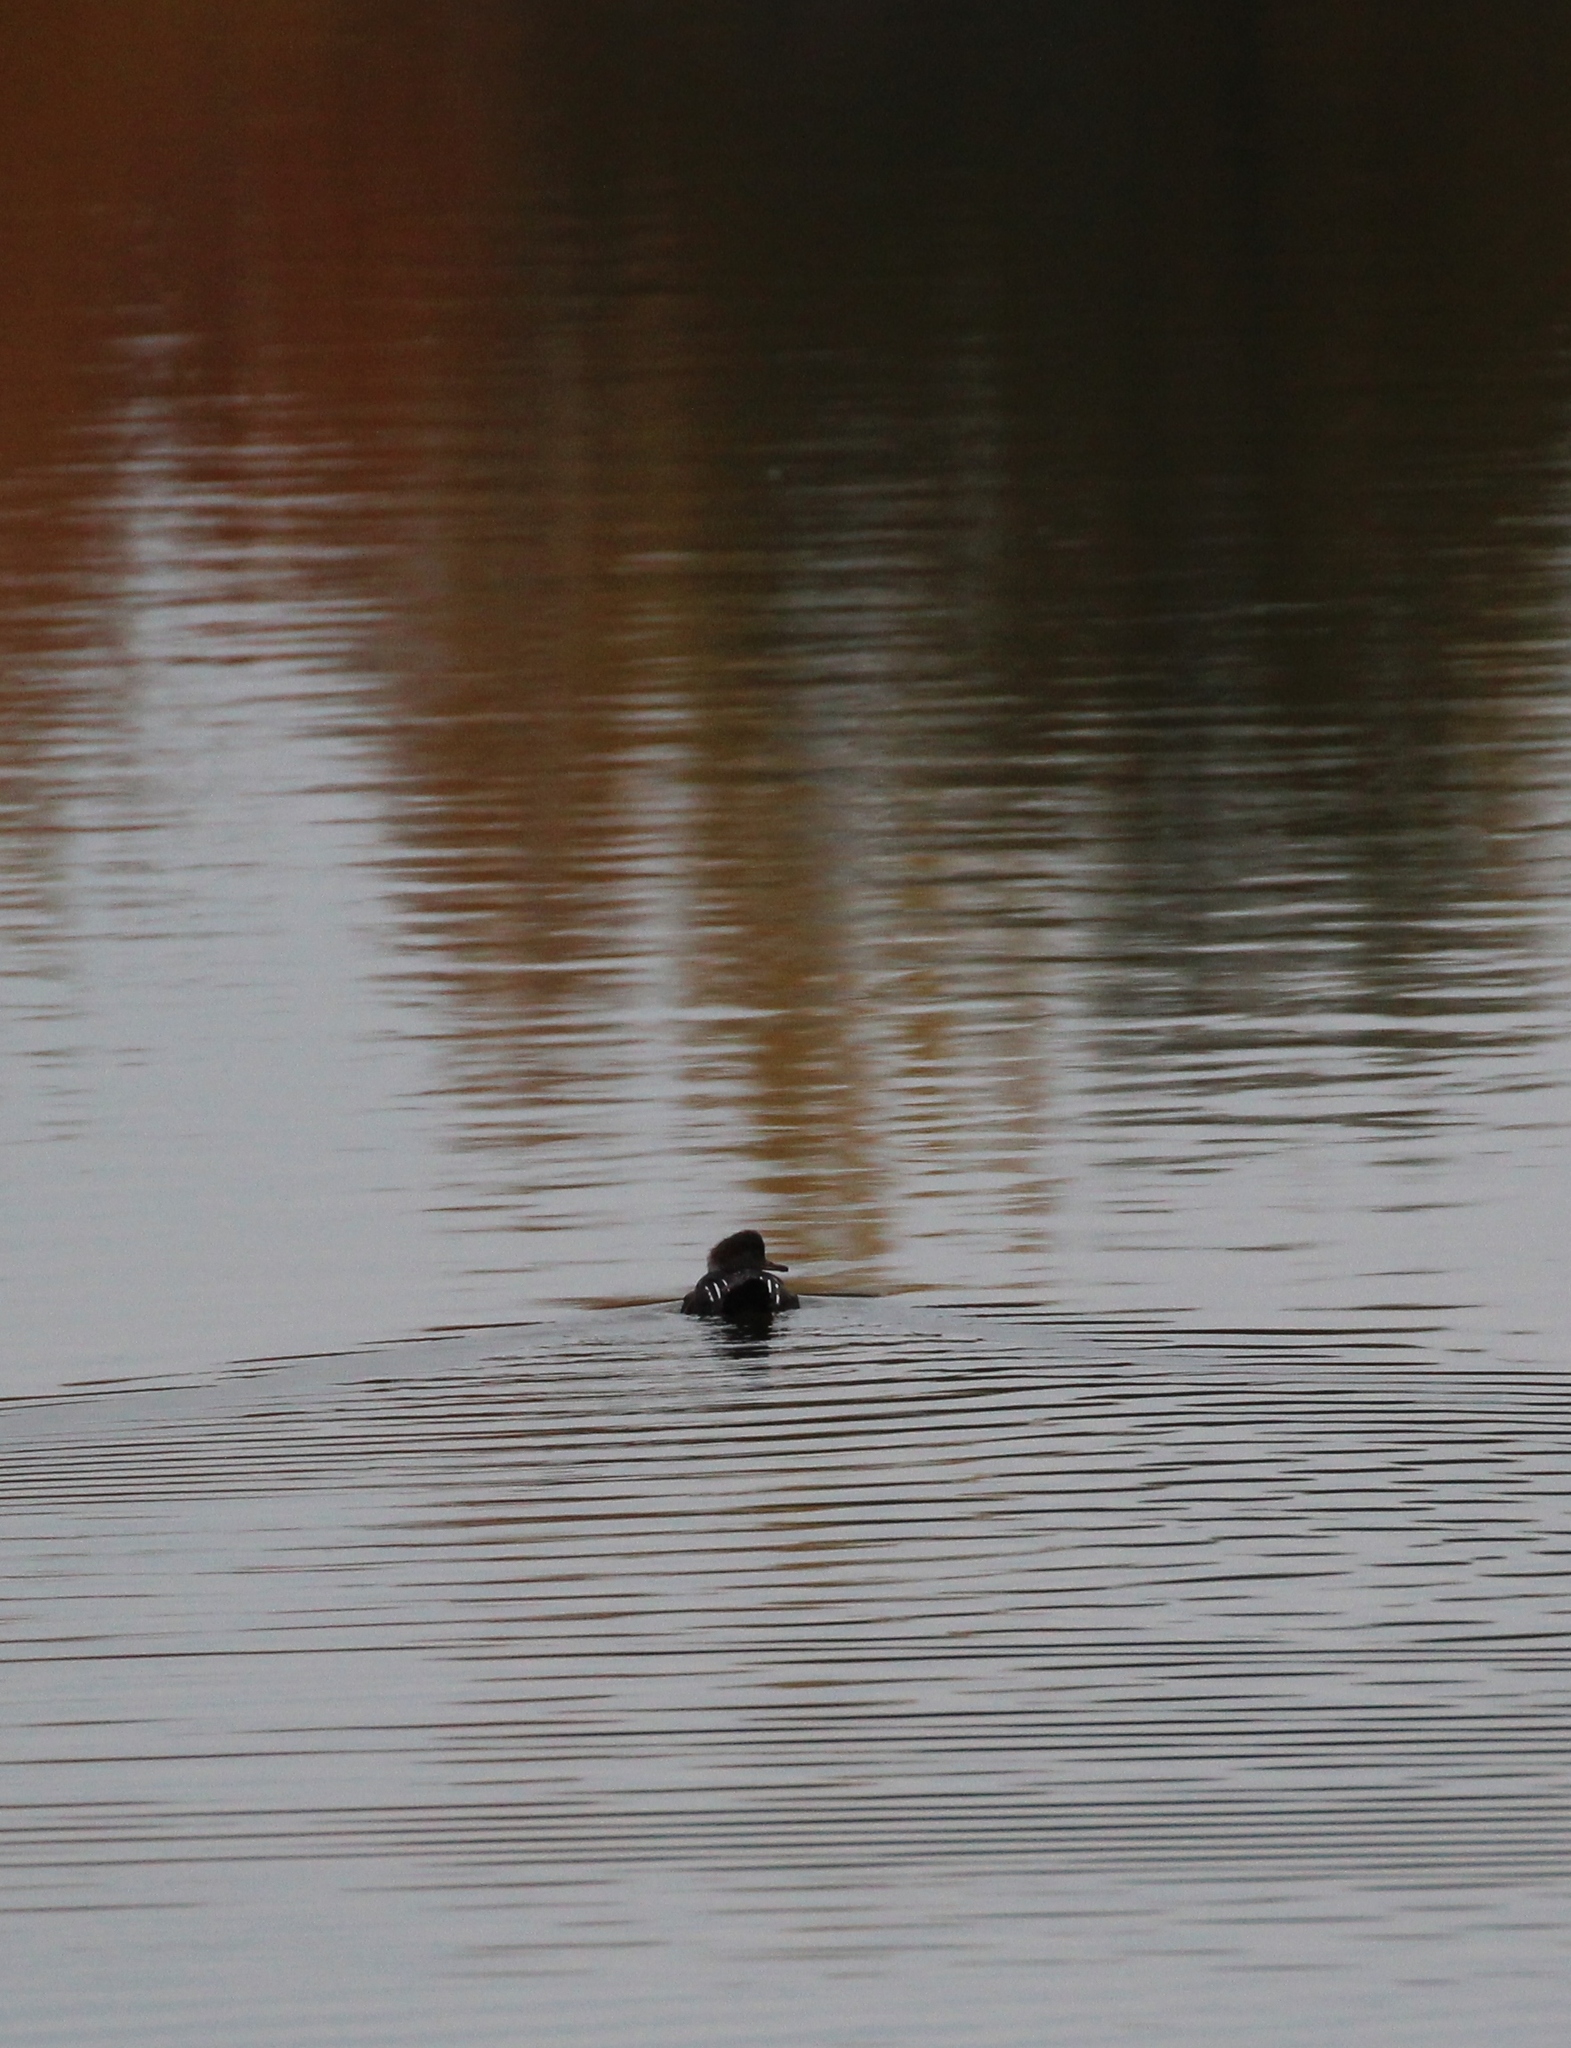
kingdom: Animalia
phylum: Chordata
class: Aves
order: Anseriformes
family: Anatidae
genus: Lophodytes
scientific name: Lophodytes cucullatus
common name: Hooded merganser
